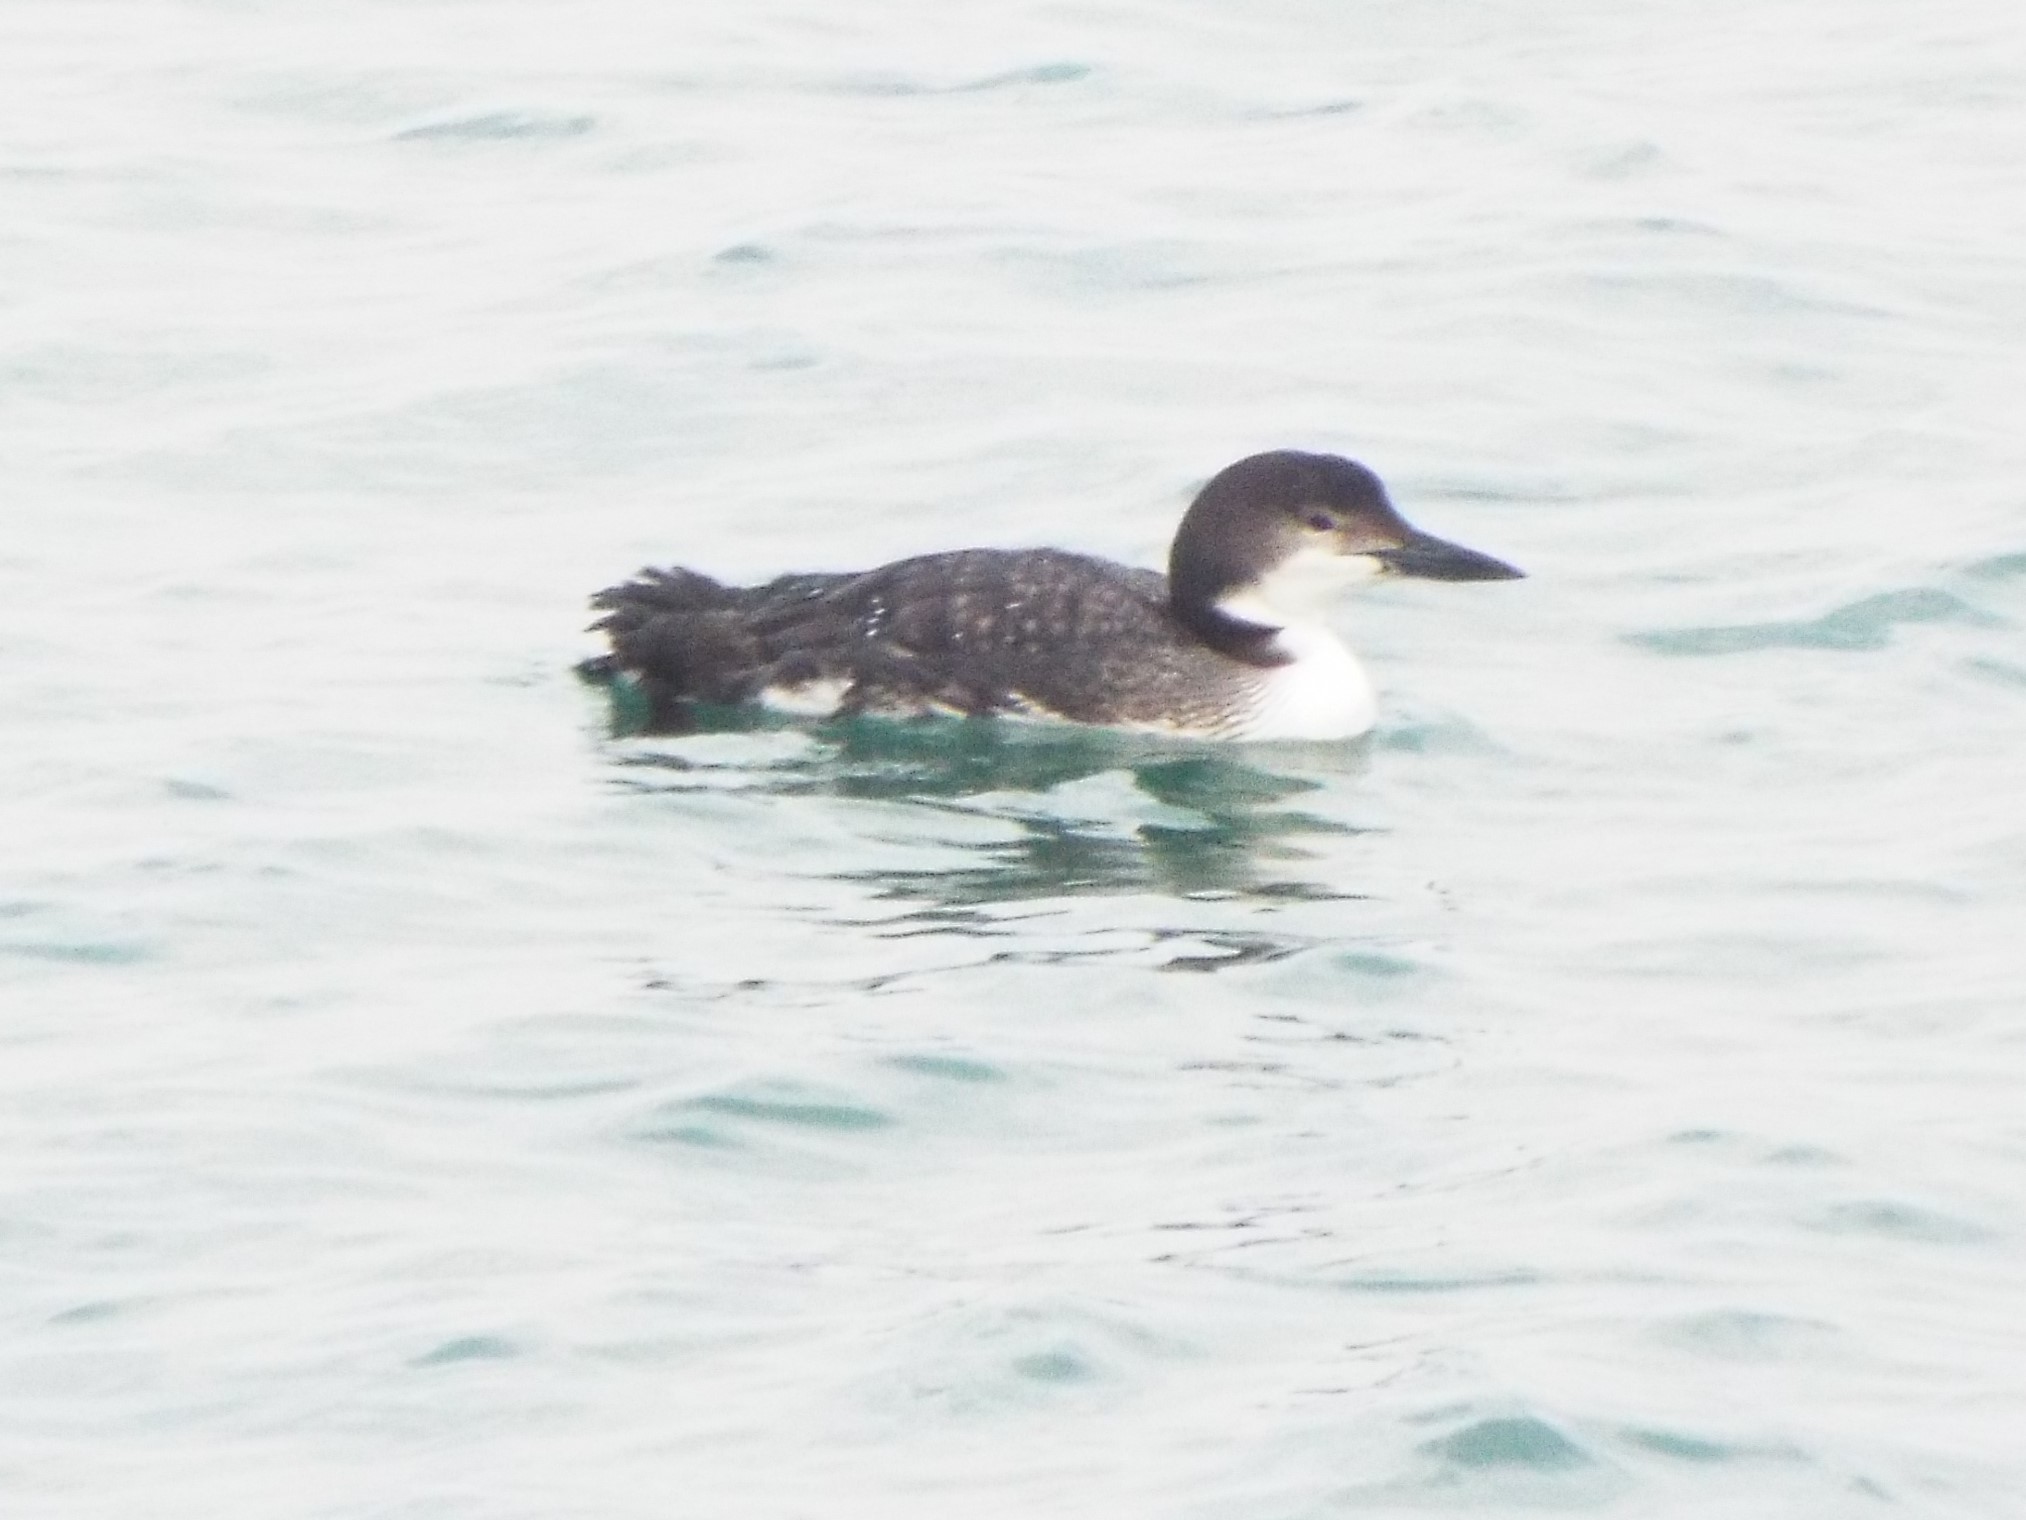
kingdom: Animalia
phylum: Chordata
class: Aves
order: Gaviiformes
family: Gaviidae
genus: Gavia
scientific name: Gavia immer
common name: Common loon
